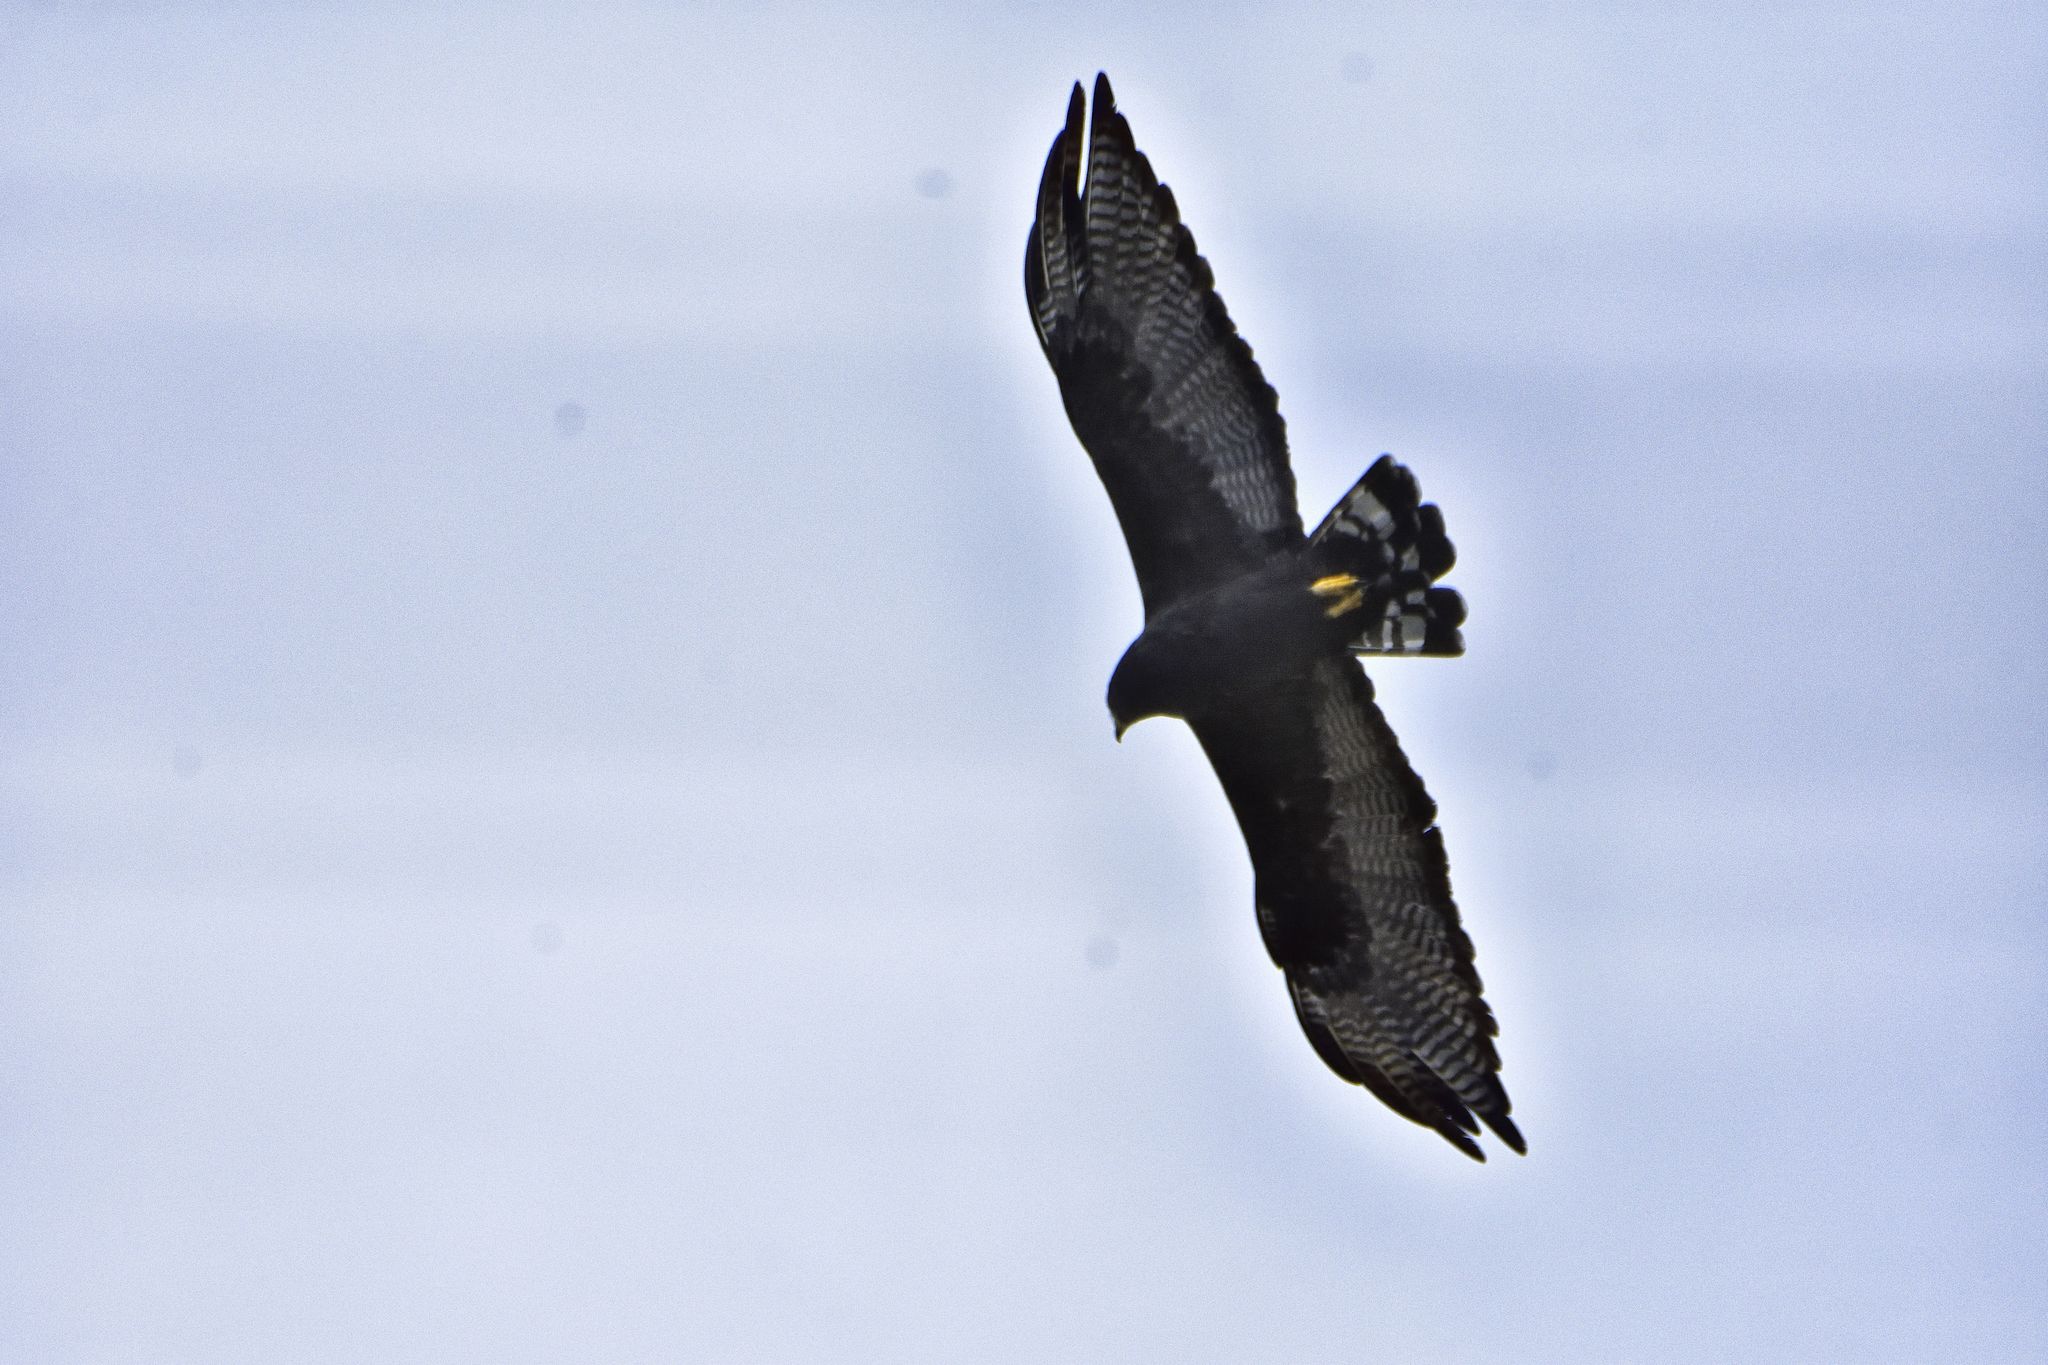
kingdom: Animalia
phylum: Chordata
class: Aves
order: Accipitriformes
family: Accipitridae
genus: Buteo
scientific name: Buteo albonotatus
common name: Zone-tailed hawk
